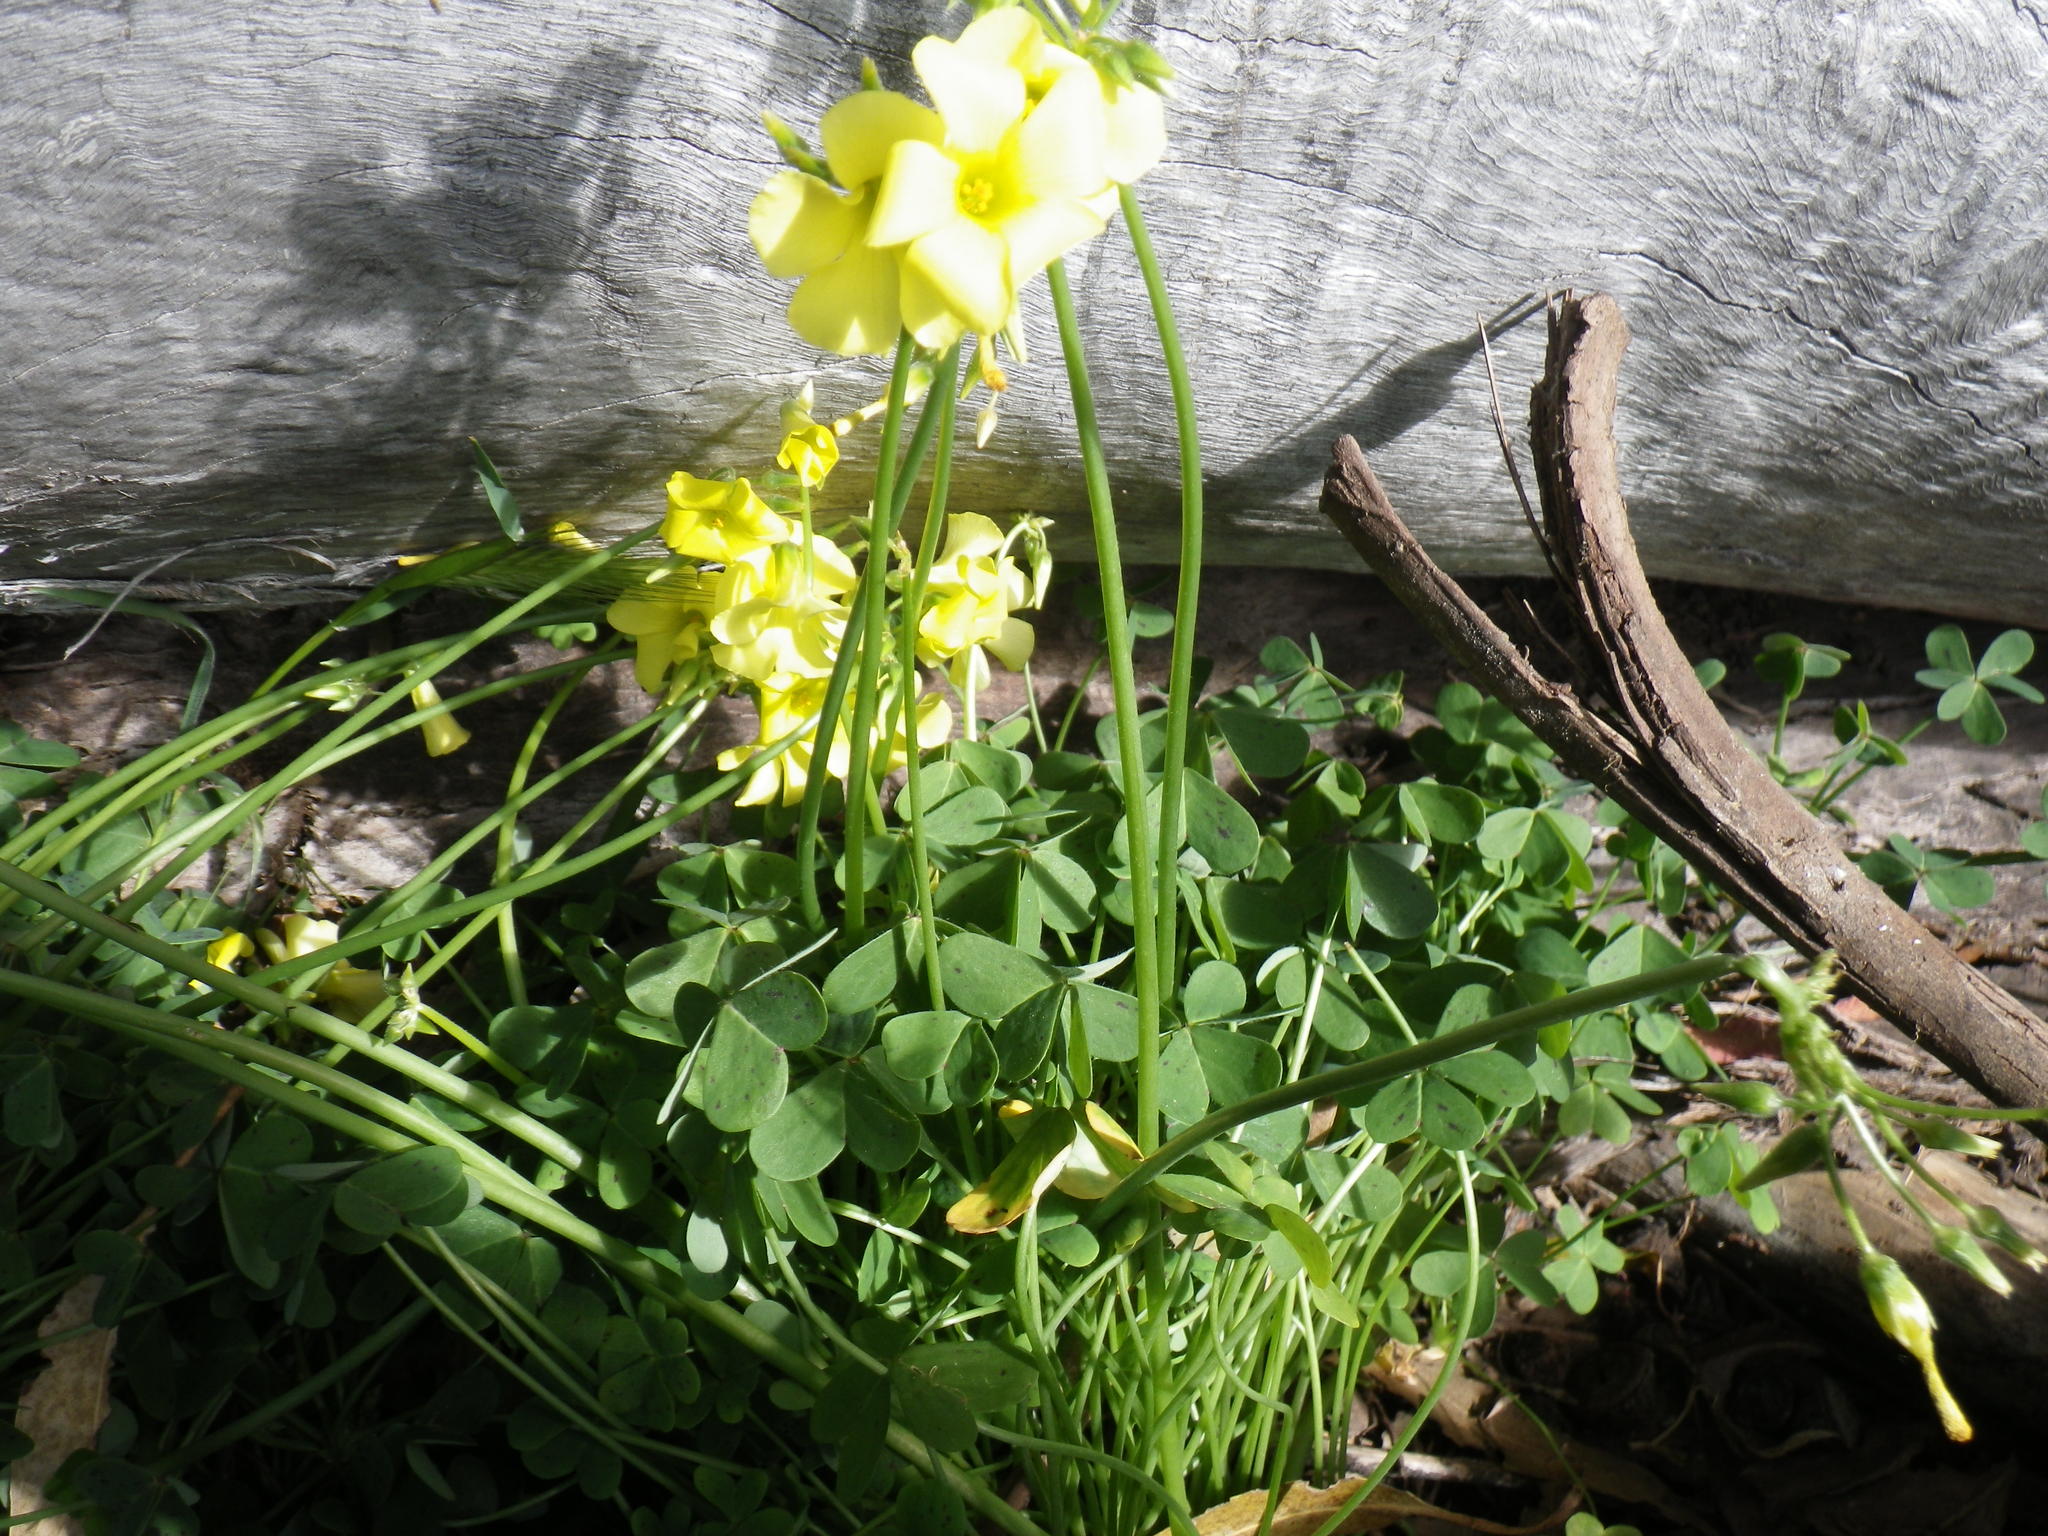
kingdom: Plantae
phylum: Tracheophyta
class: Magnoliopsida
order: Oxalidales
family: Oxalidaceae
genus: Oxalis
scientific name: Oxalis pes-caprae
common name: Bermuda-buttercup
